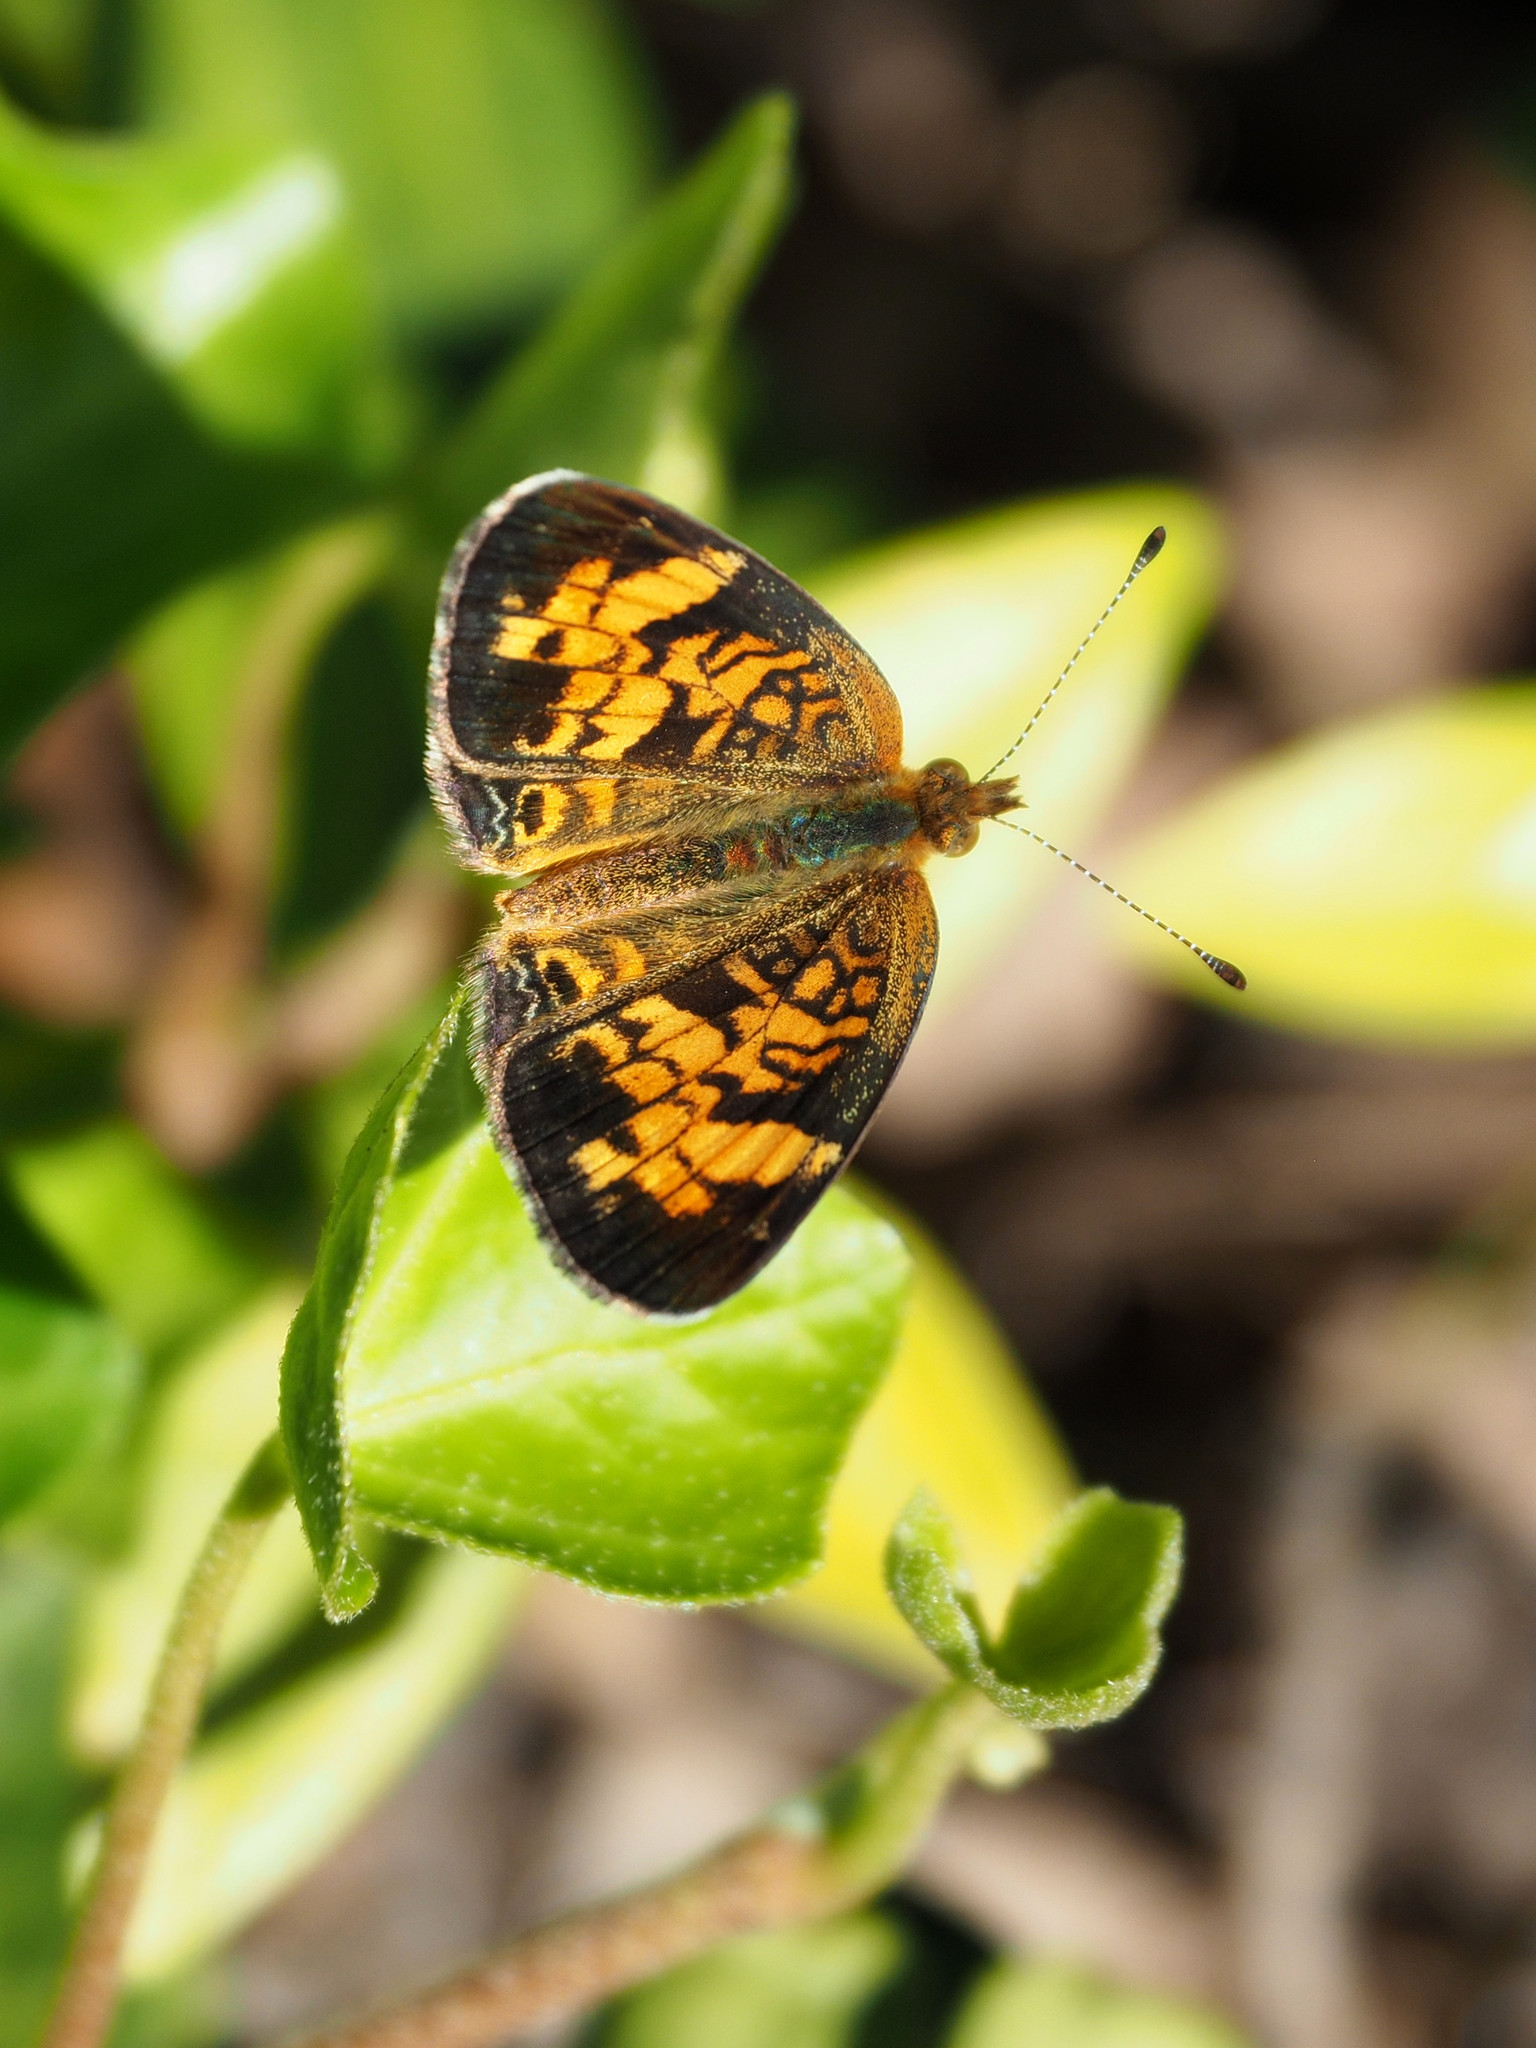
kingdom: Animalia
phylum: Arthropoda
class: Insecta
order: Lepidoptera
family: Nymphalidae
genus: Phyciodes
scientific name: Phyciodes tharos
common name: Pearl crescent
